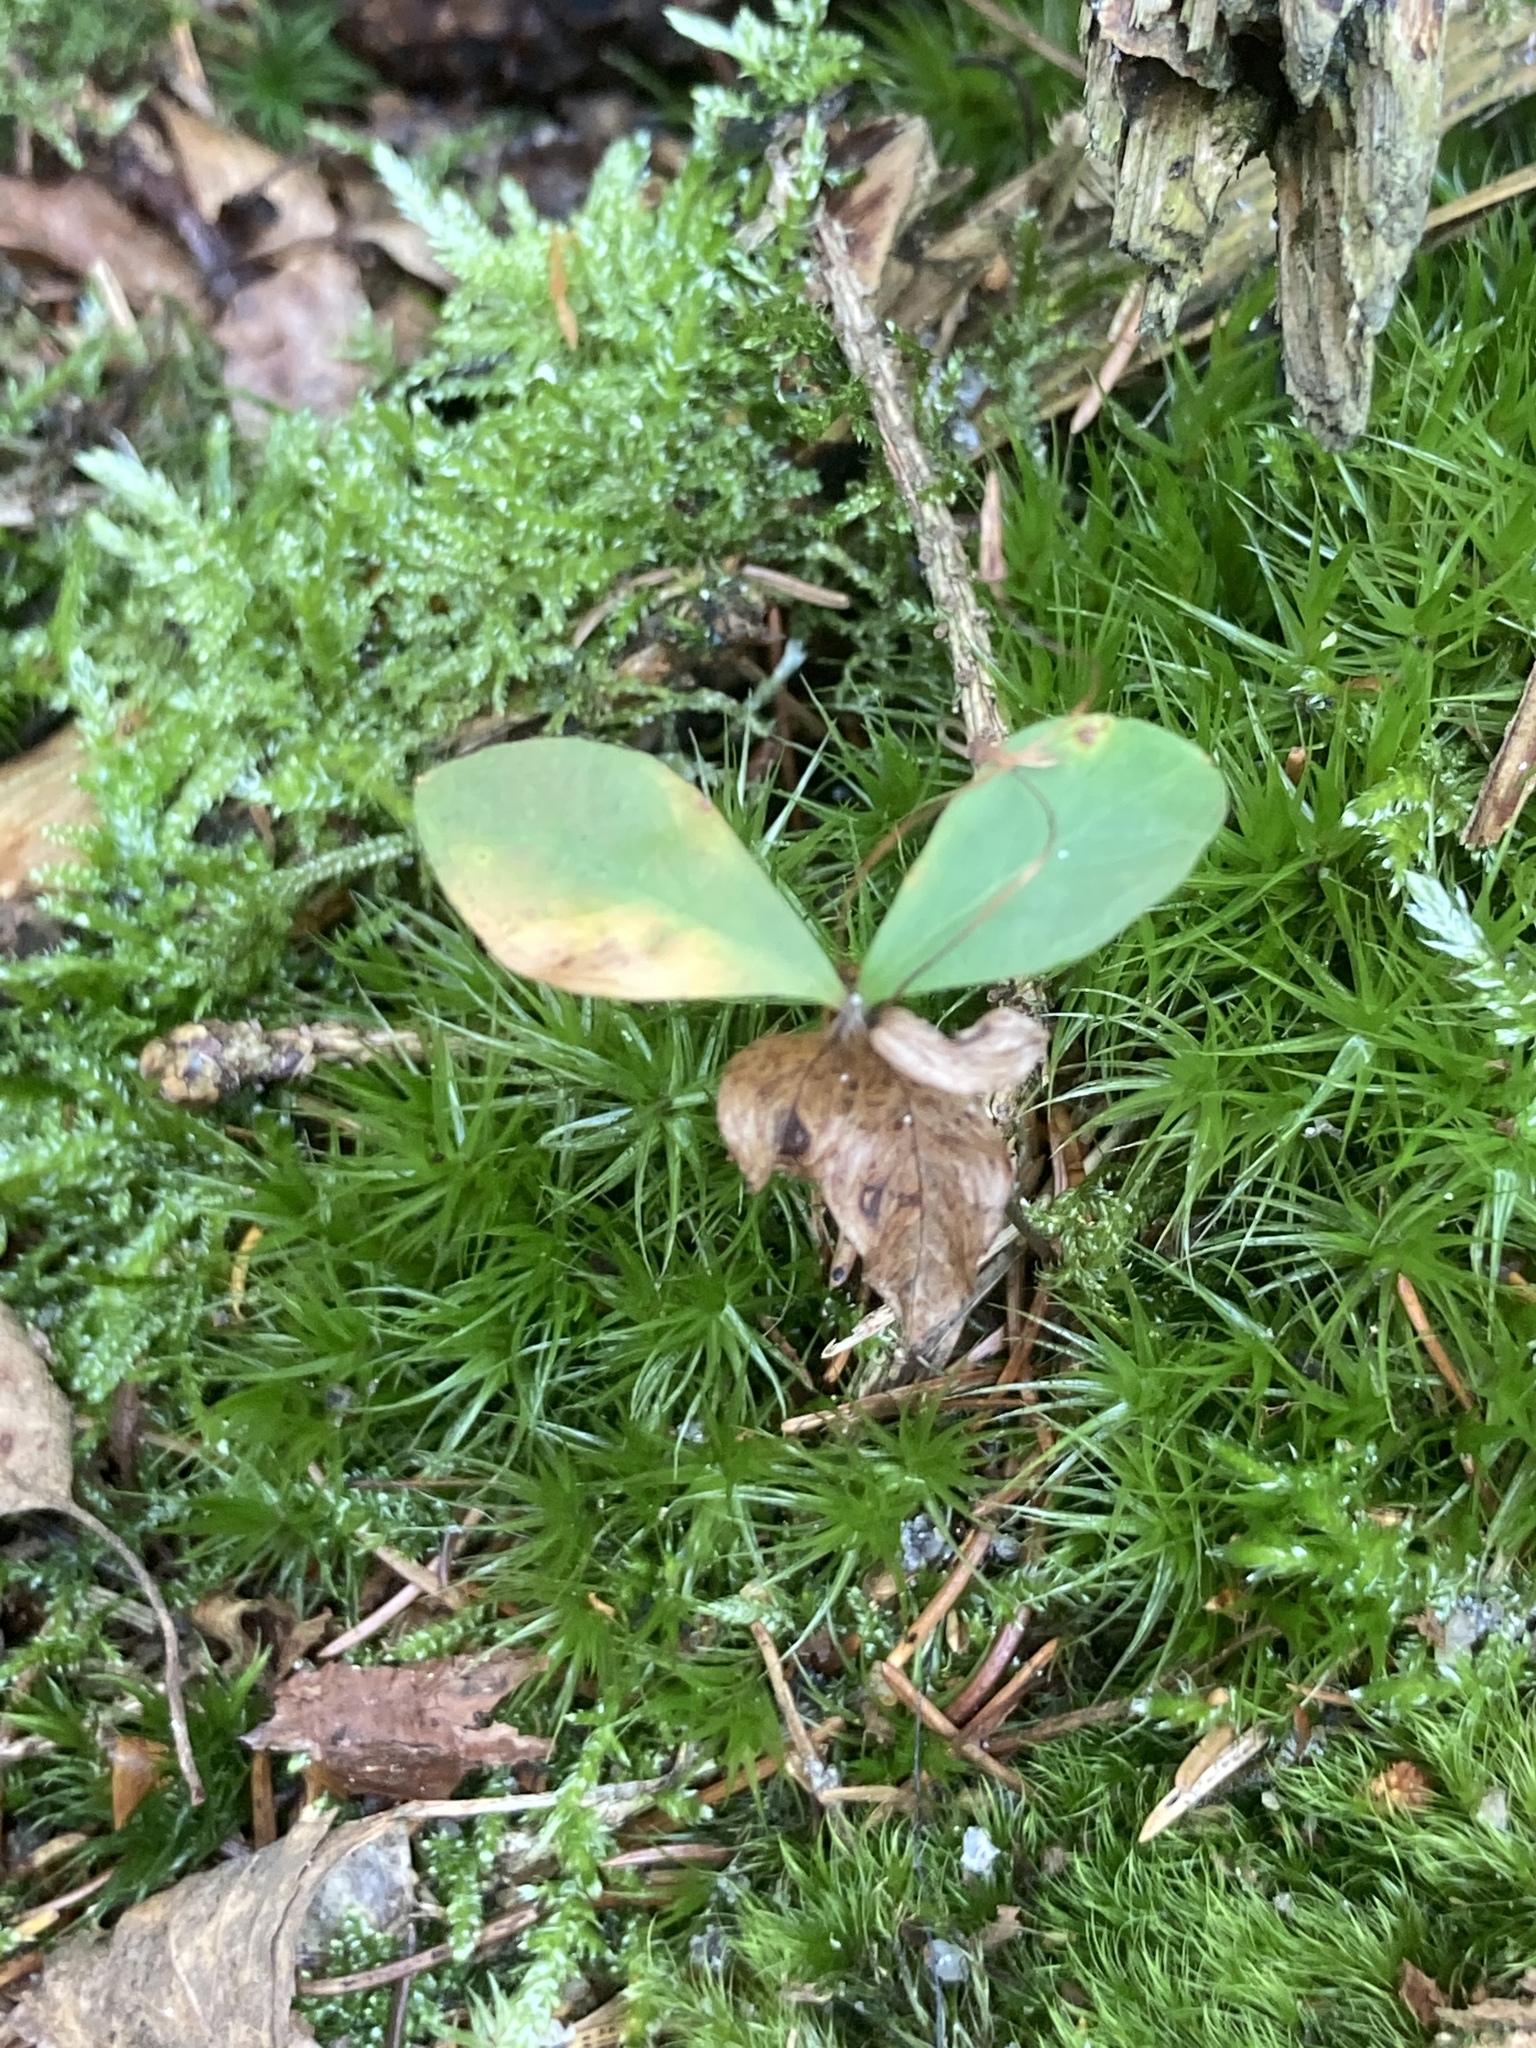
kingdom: Plantae
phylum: Bryophyta
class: Bryopsida
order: Dicranales
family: Dicranaceae
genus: Dicranum
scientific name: Dicranum scoparium
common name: Broom fork-moss
